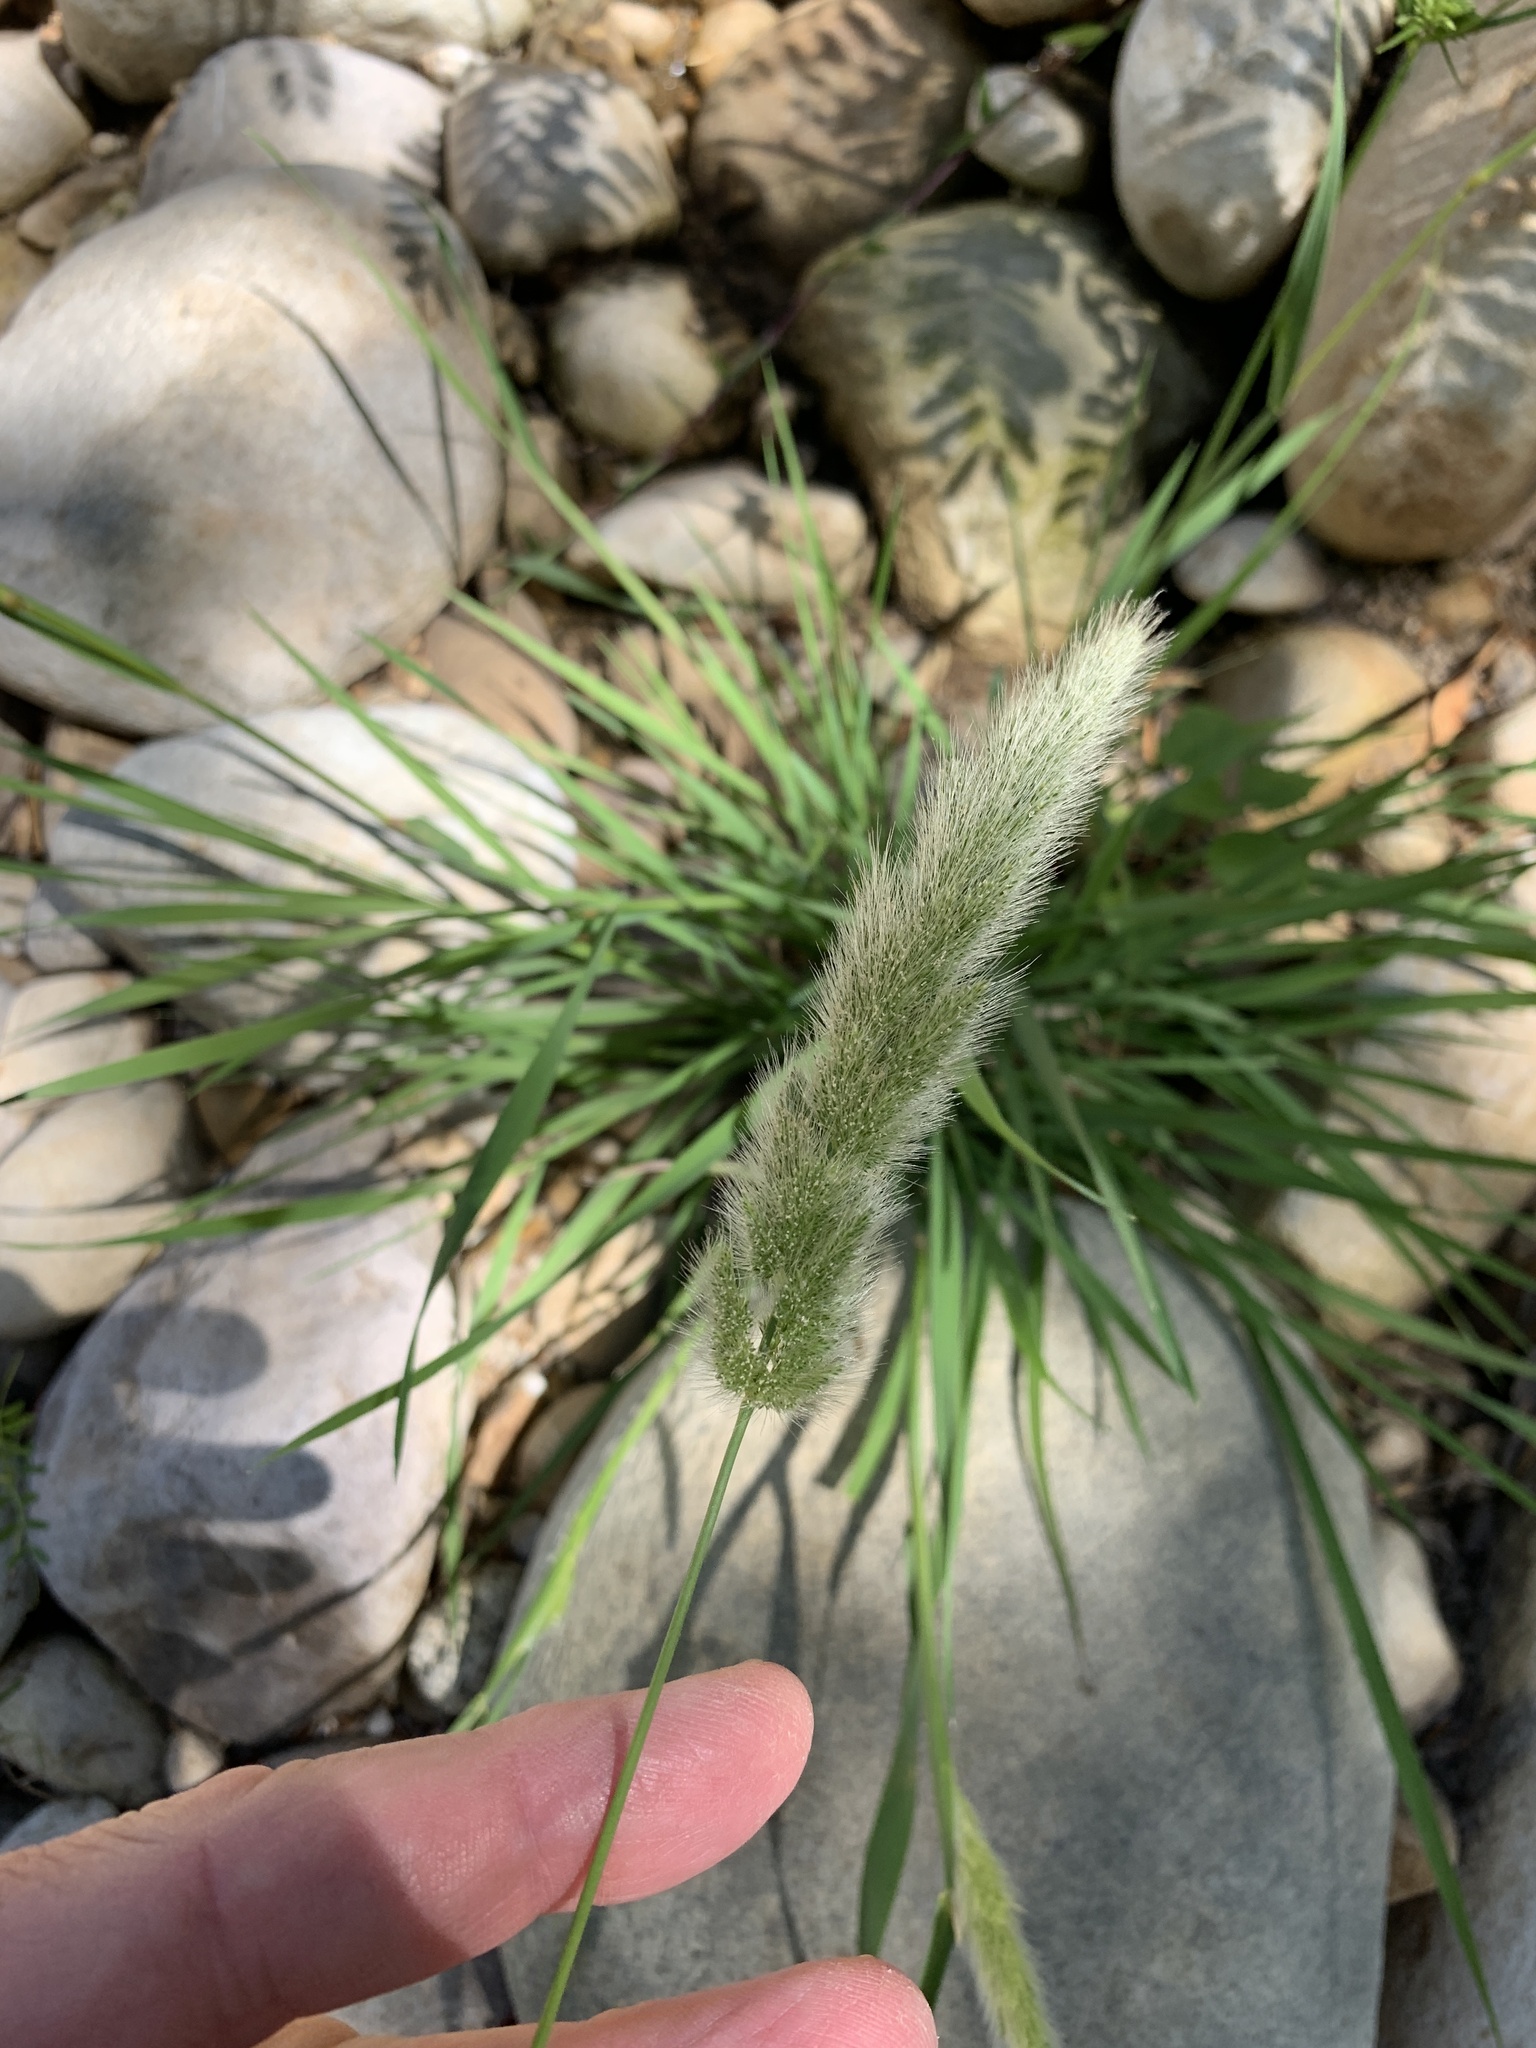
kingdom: Plantae
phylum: Tracheophyta
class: Liliopsida
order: Poales
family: Poaceae
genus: Polypogon
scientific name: Polypogon monspeliensis
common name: Annual rabbitsfoot grass
